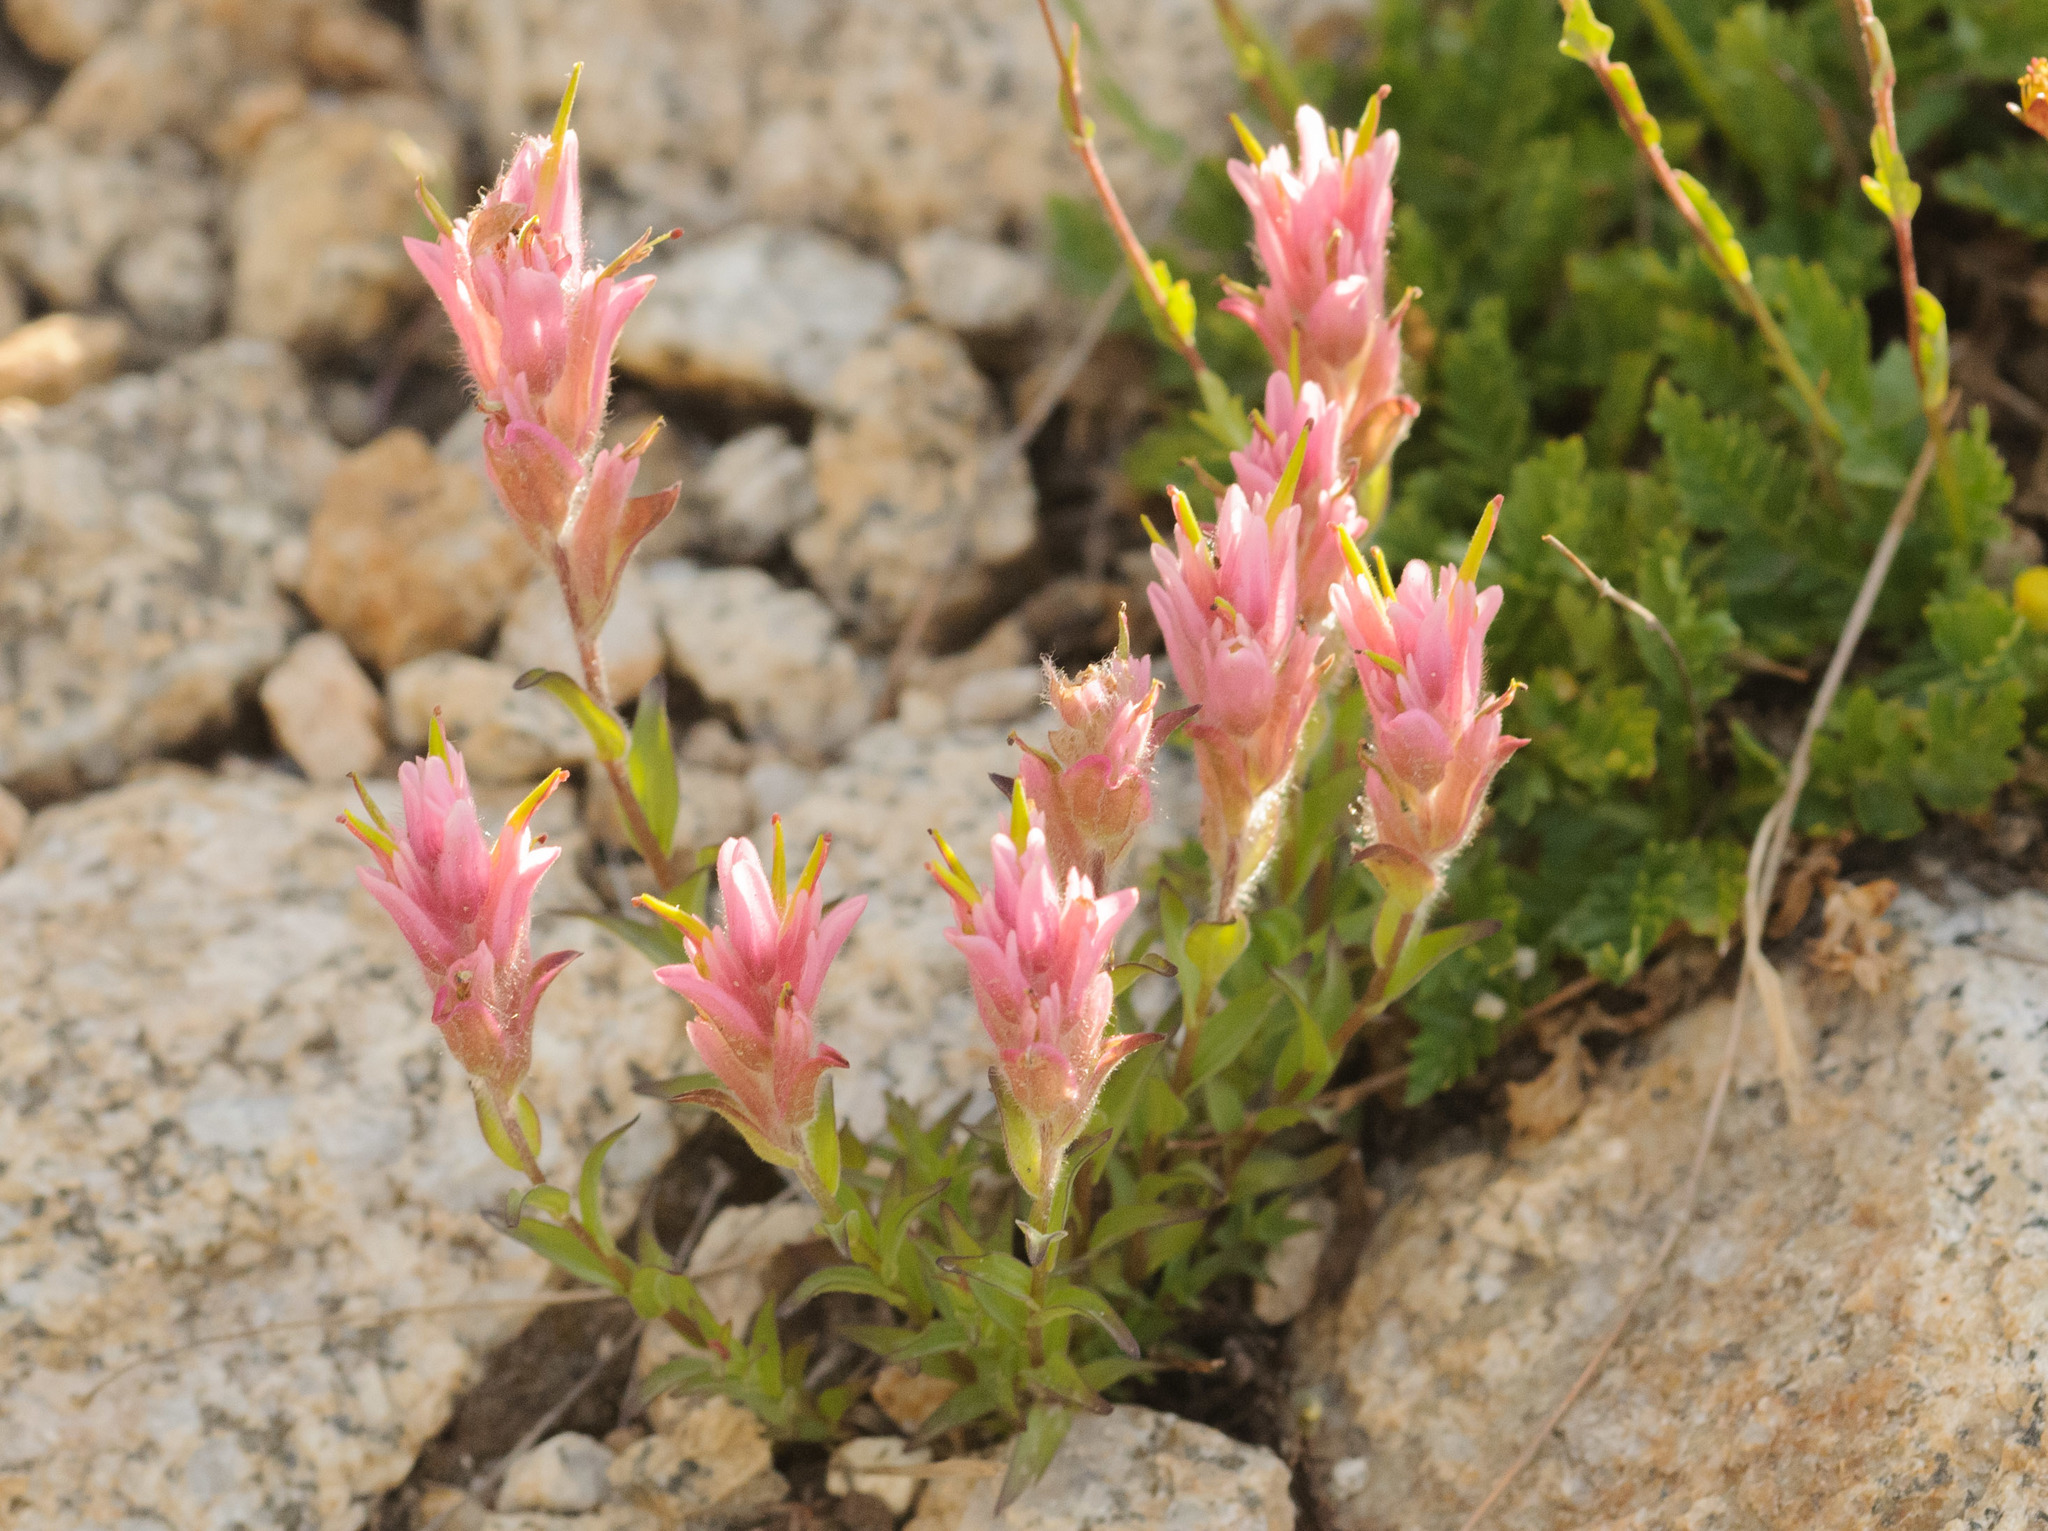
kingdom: Plantae
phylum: Tracheophyta
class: Magnoliopsida
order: Lamiales
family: Orobanchaceae
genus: Castilleja
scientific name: Castilleja rhexifolia
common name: Rocky mountain paintbrush
